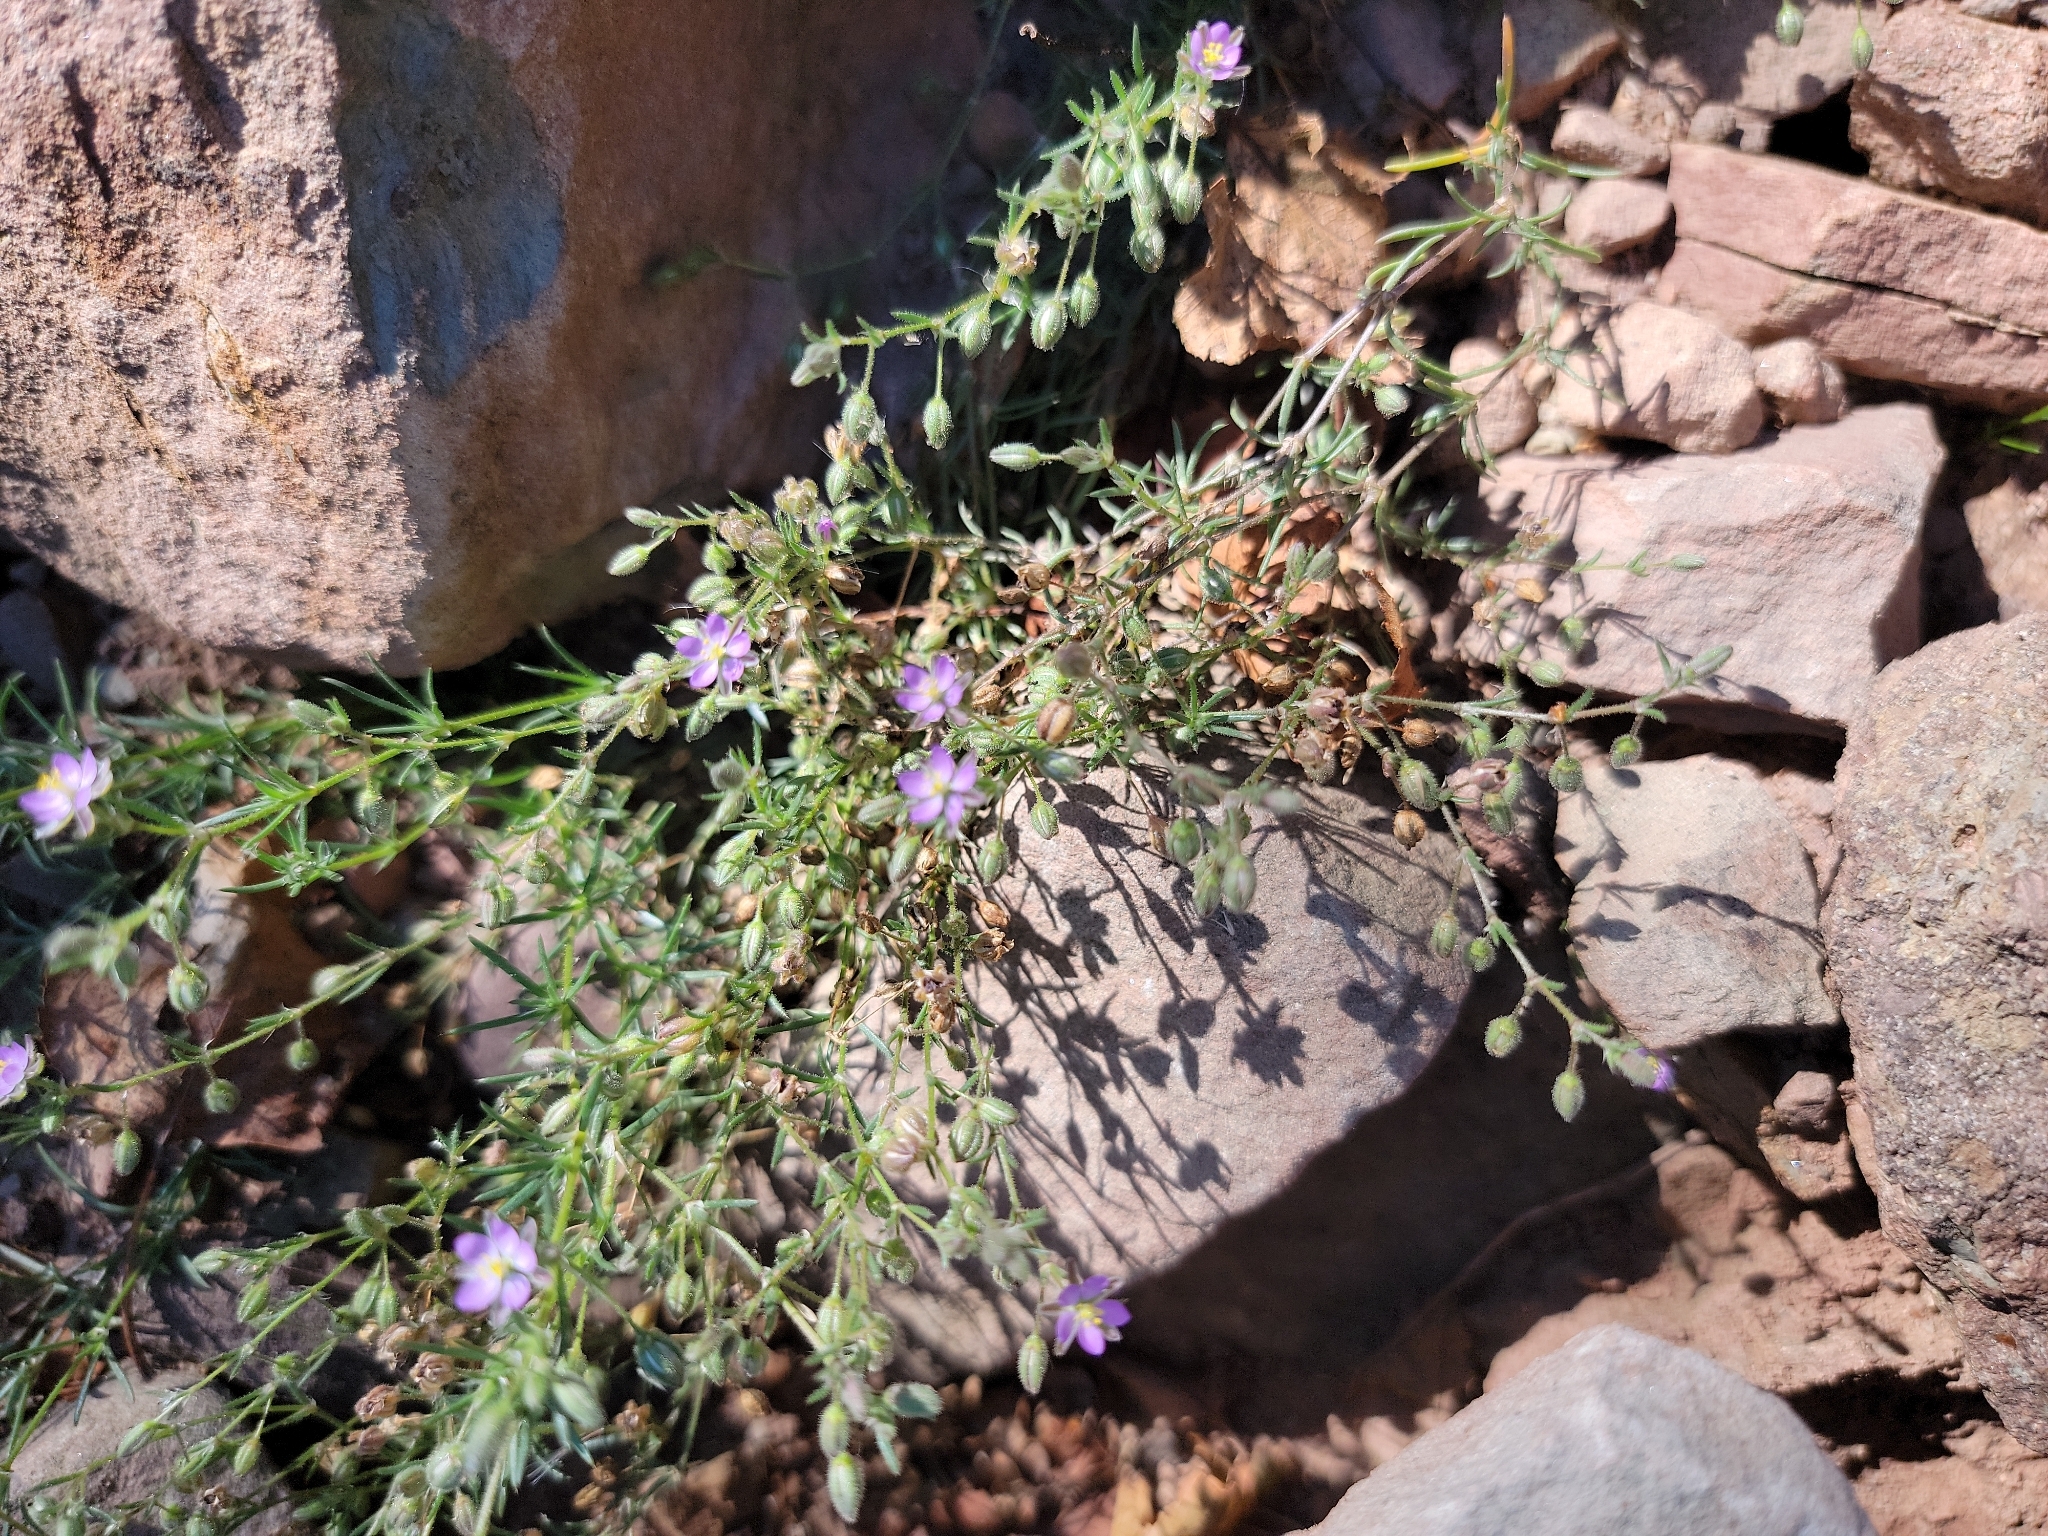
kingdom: Plantae
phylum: Tracheophyta
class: Magnoliopsida
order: Caryophyllales
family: Caryophyllaceae
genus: Spergularia
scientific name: Spergularia rubra
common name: Red sand-spurrey
